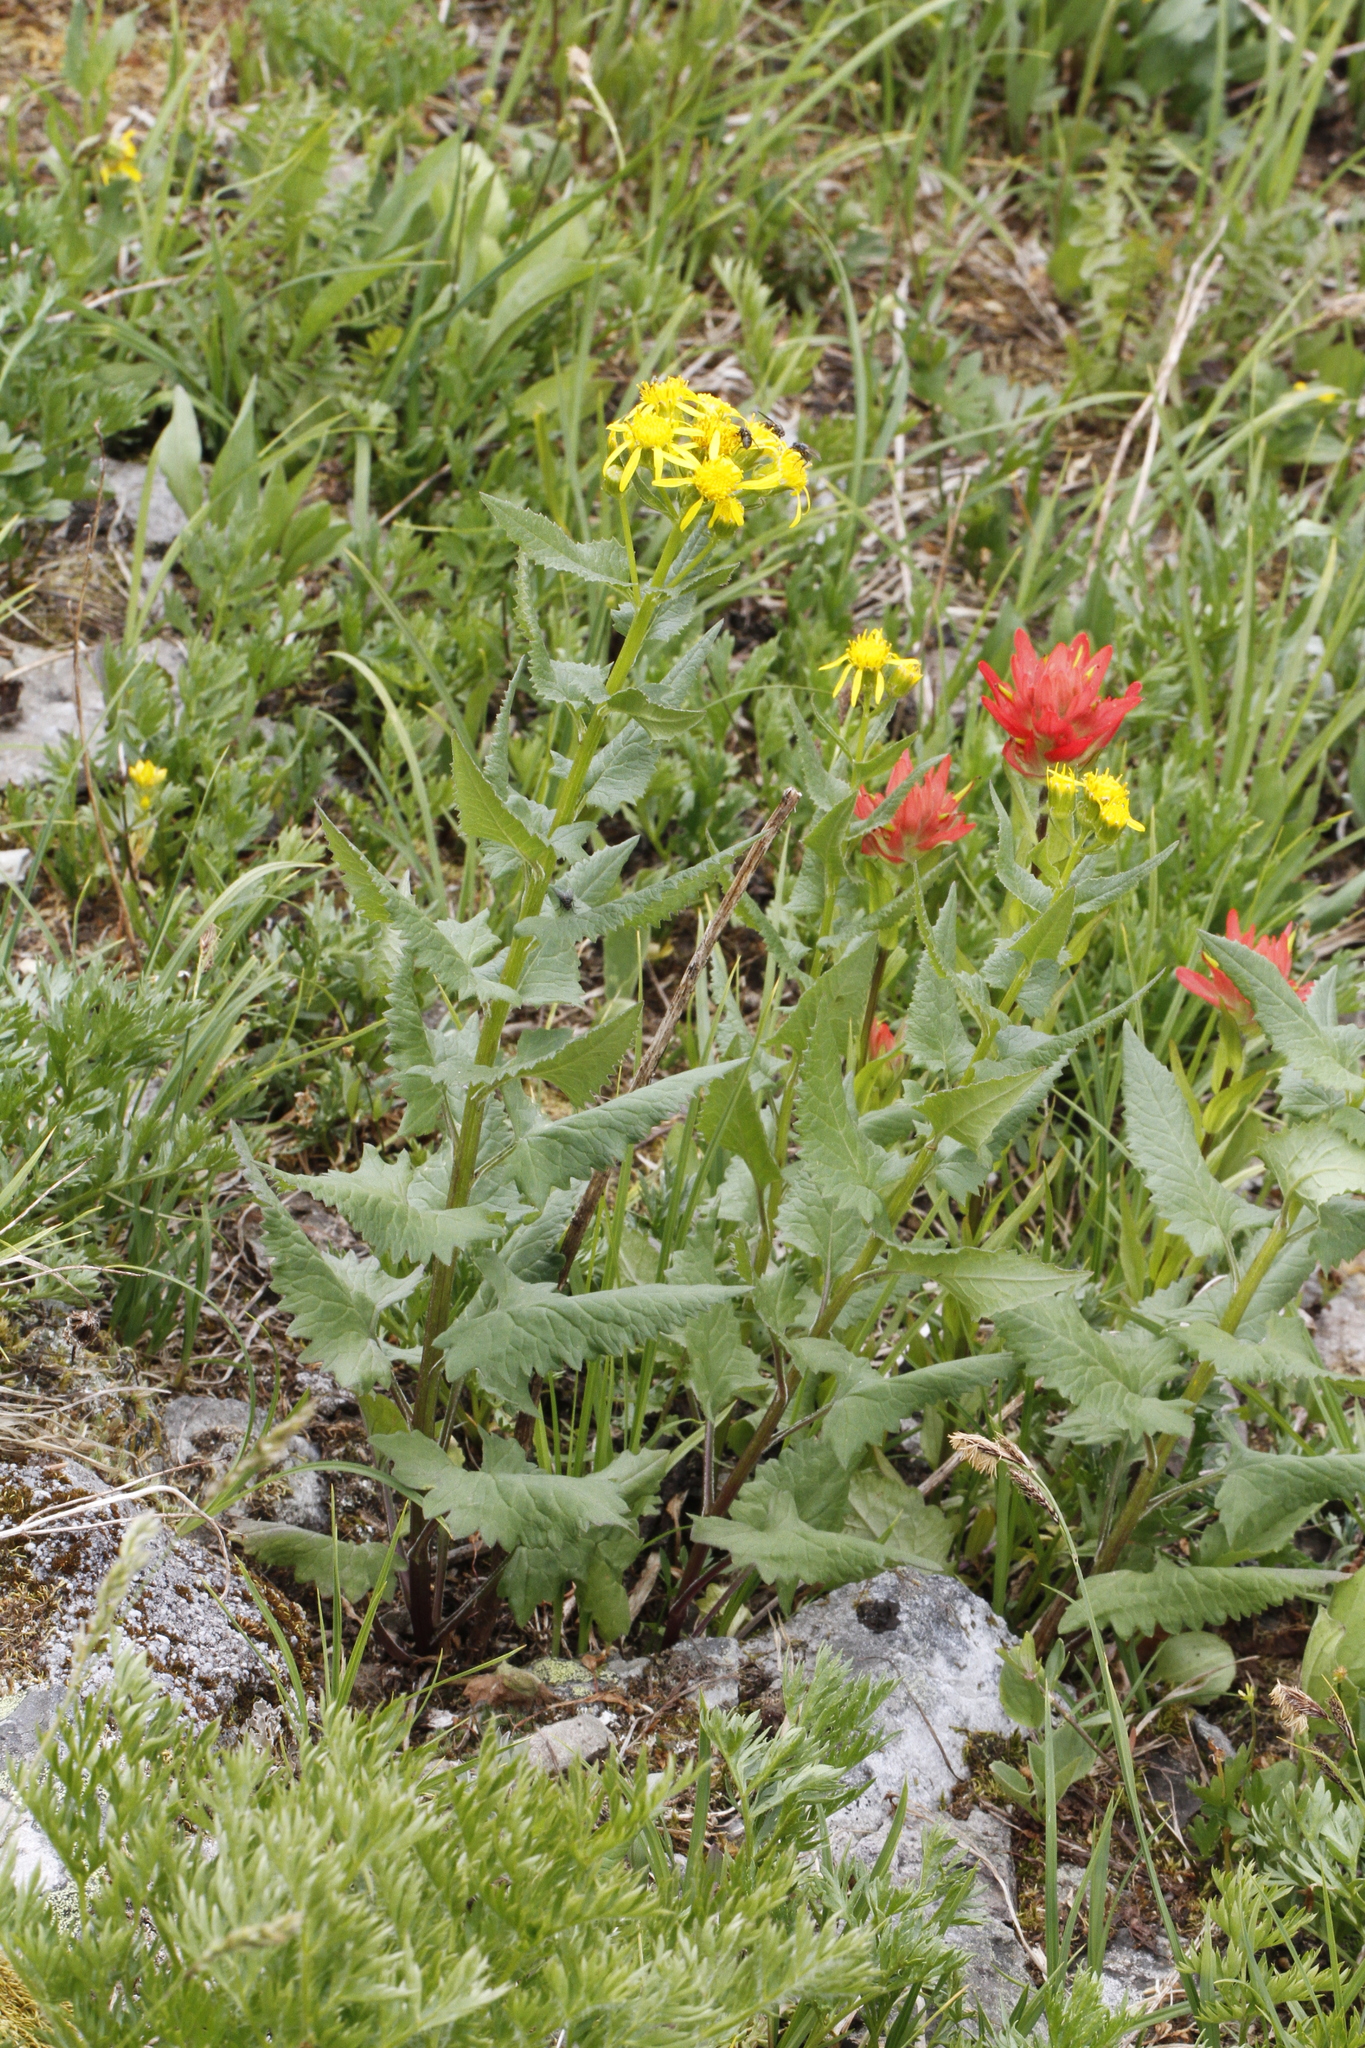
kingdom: Plantae
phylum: Tracheophyta
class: Magnoliopsida
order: Asterales
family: Asteraceae
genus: Senecio
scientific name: Senecio triangularis
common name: Arrowleaf butterweed
